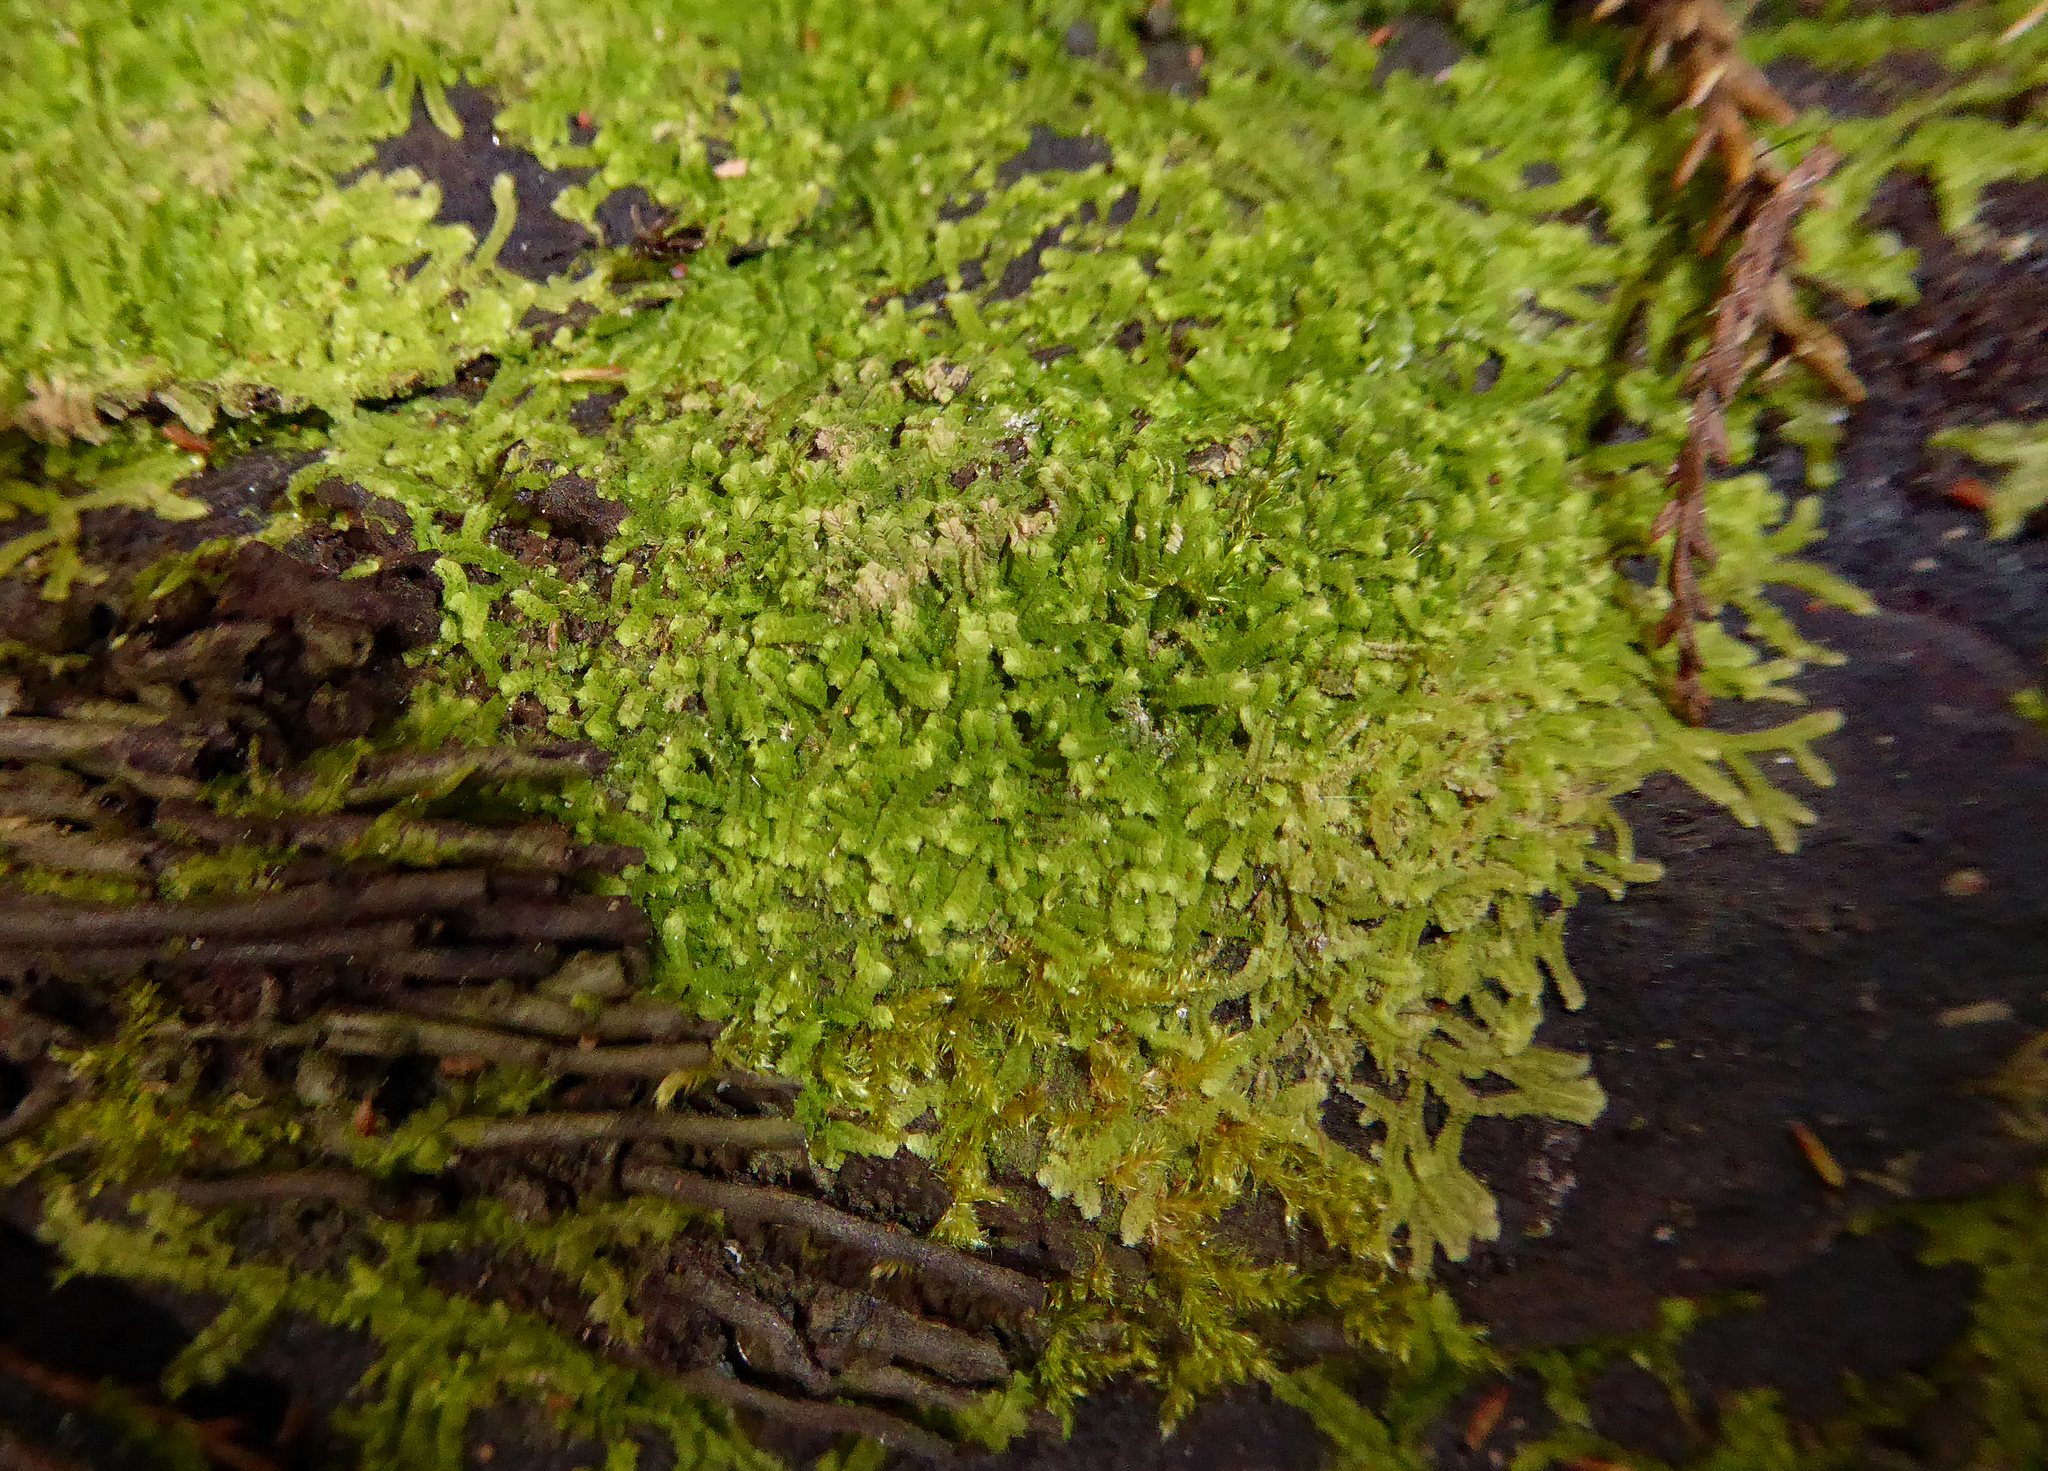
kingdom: Plantae
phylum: Marchantiophyta
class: Jungermanniopsida
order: Jungermanniales
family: Lophocoleaceae
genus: Lophocolea
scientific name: Lophocolea muricata
